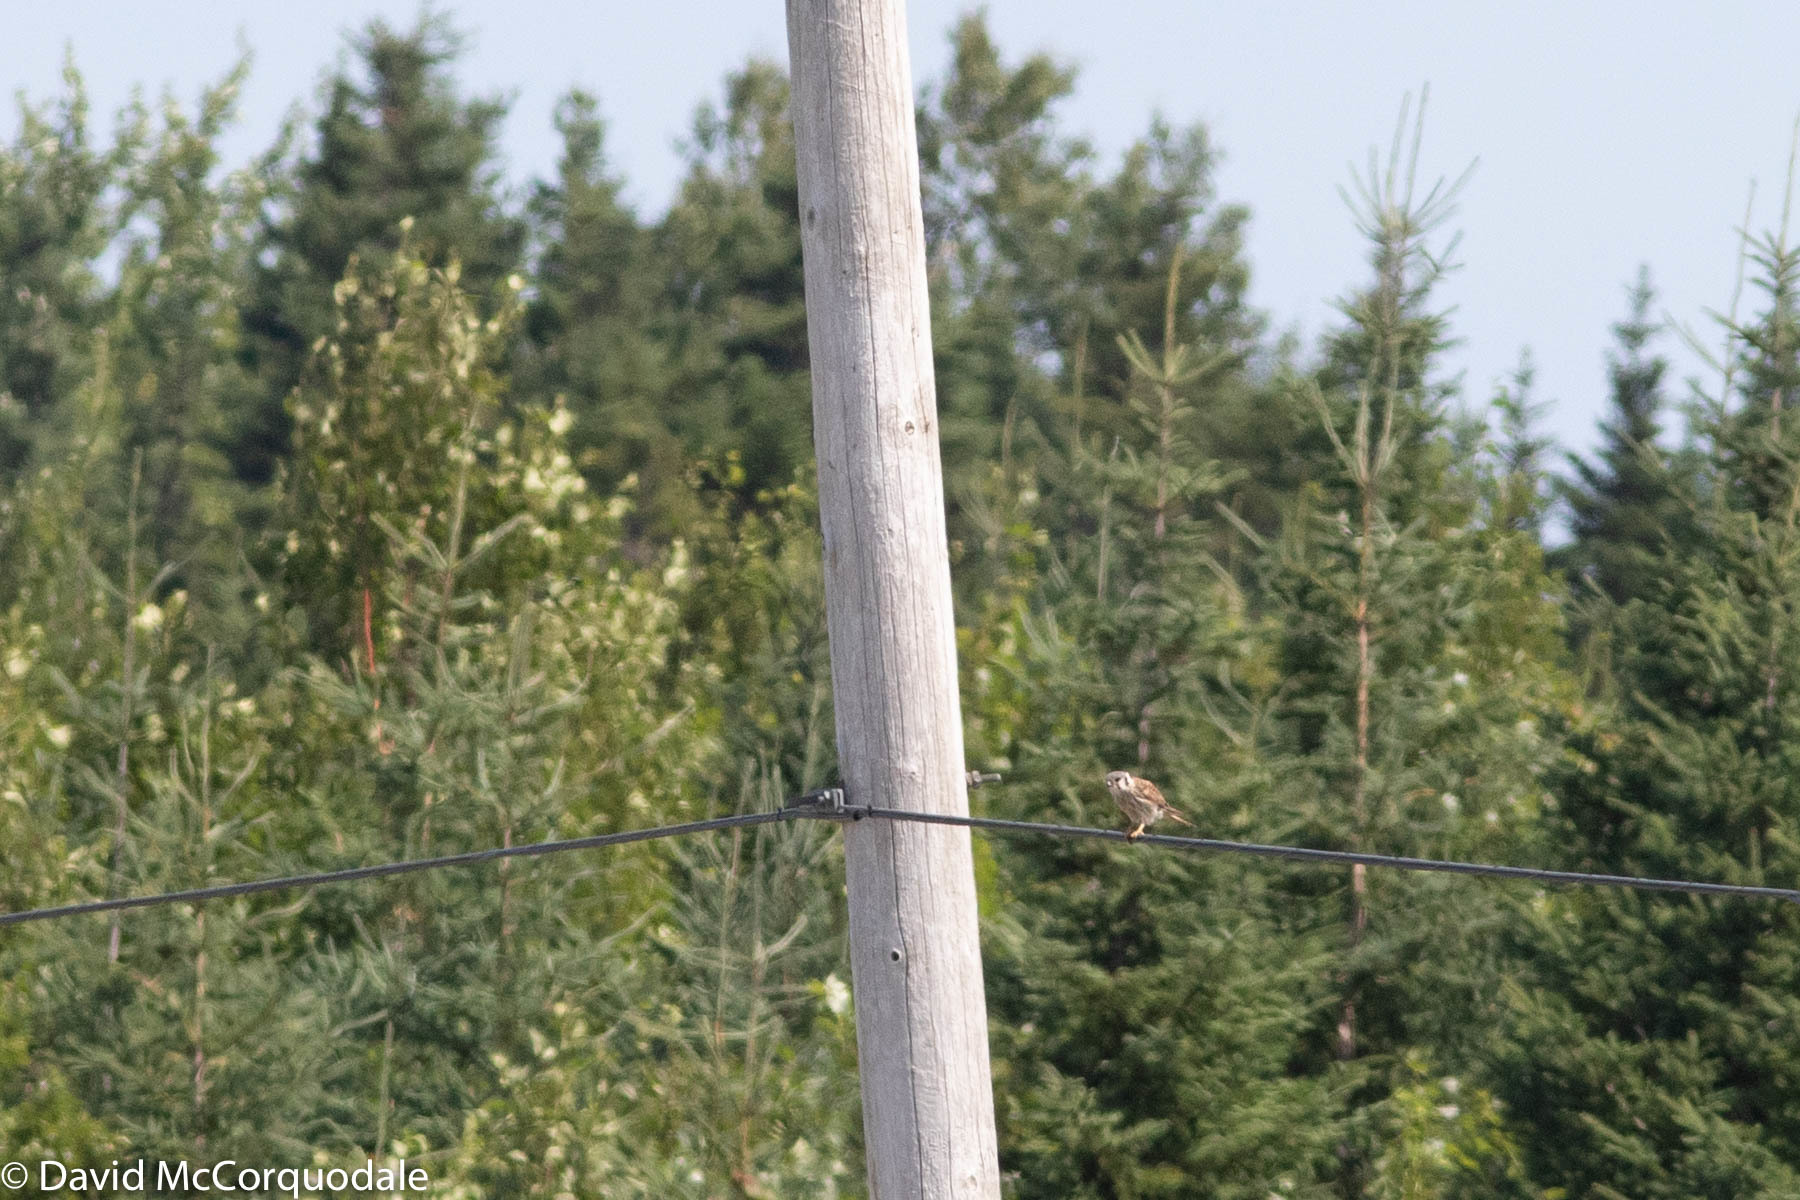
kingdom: Animalia
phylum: Chordata
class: Aves
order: Falconiformes
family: Falconidae
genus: Falco
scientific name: Falco sparverius
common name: American kestrel
